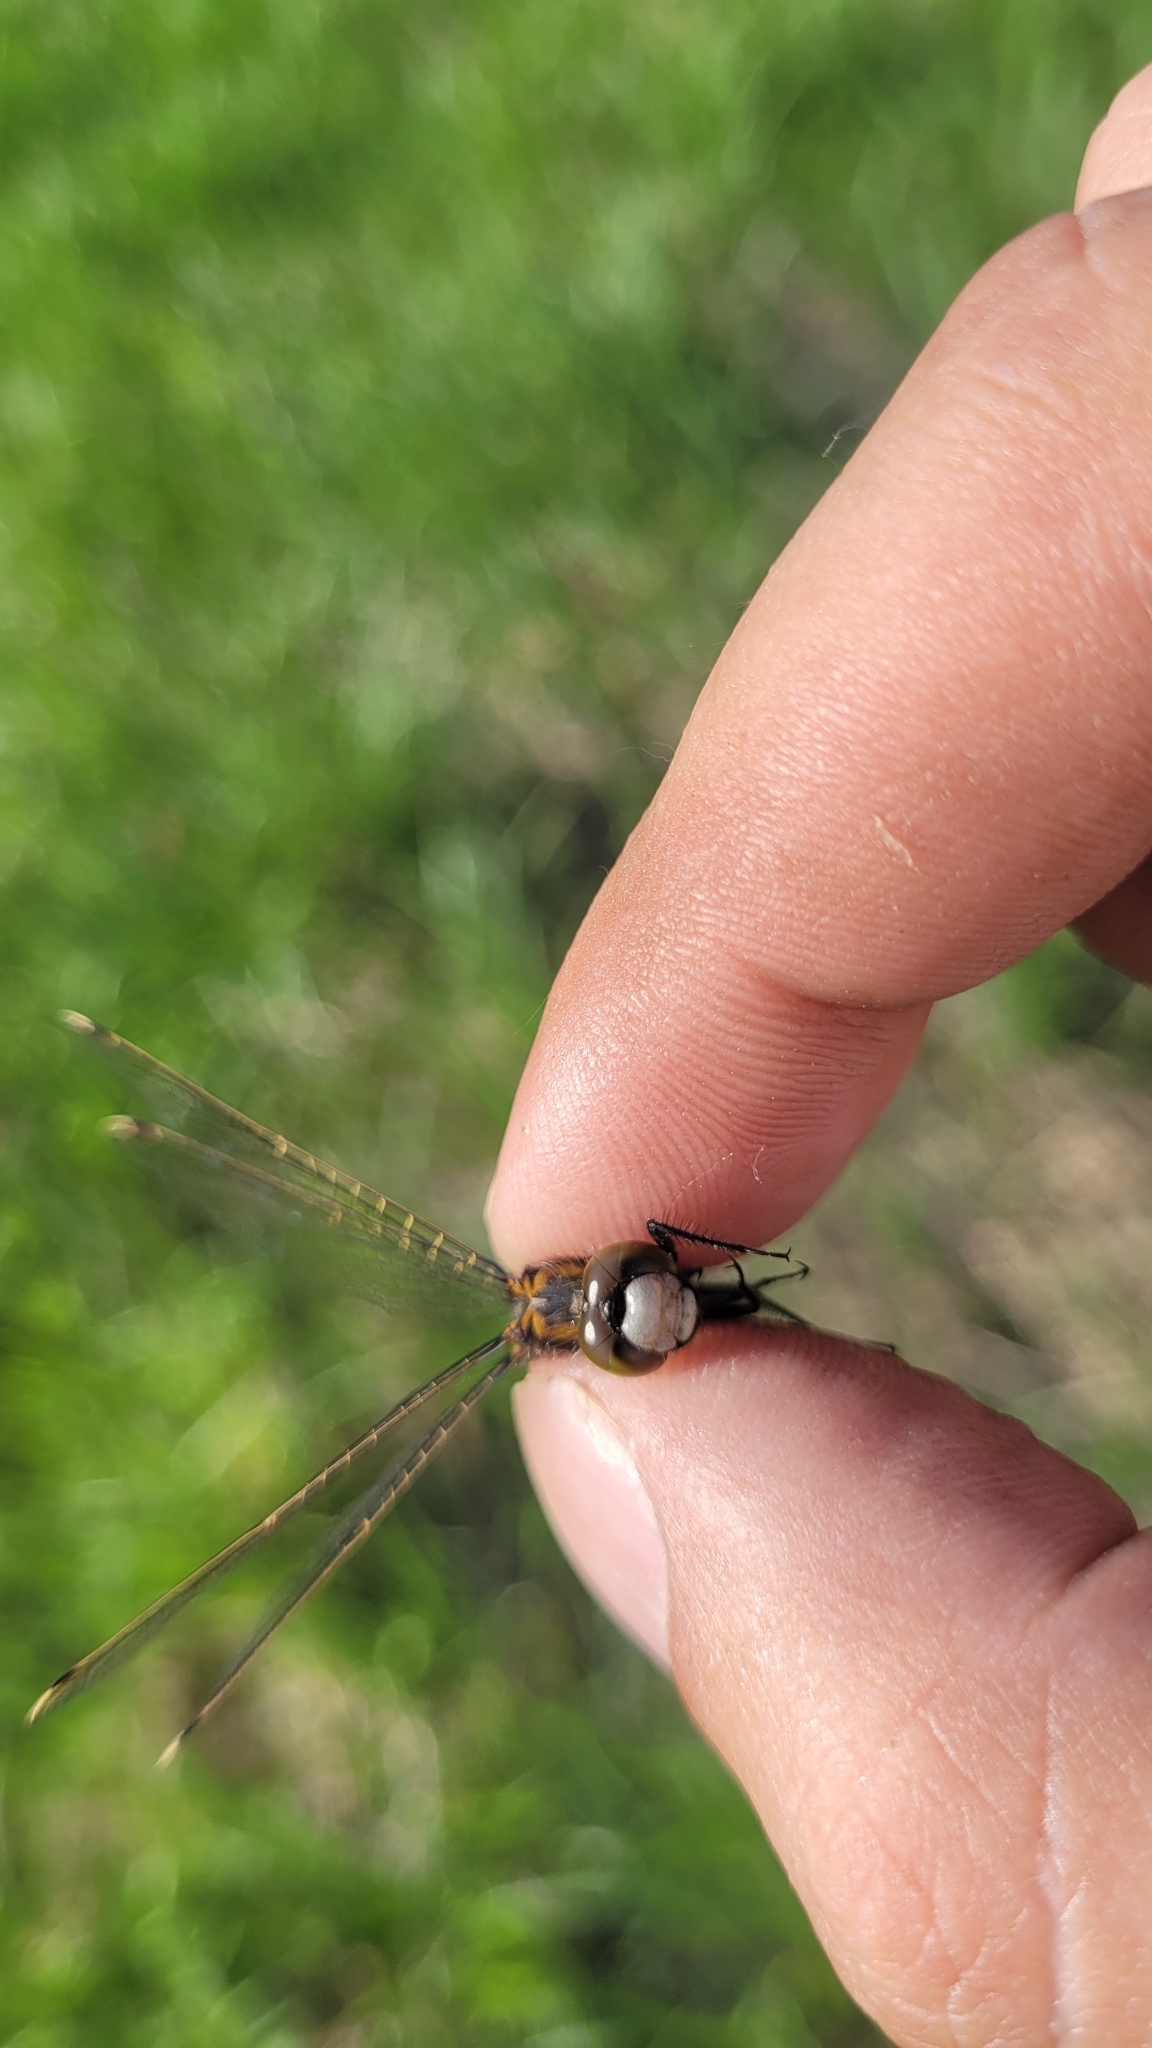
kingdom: Animalia
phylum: Arthropoda
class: Insecta
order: Odonata
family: Libellulidae
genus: Leucorrhinia
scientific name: Leucorrhinia rubicunda
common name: Ruby whiteface
